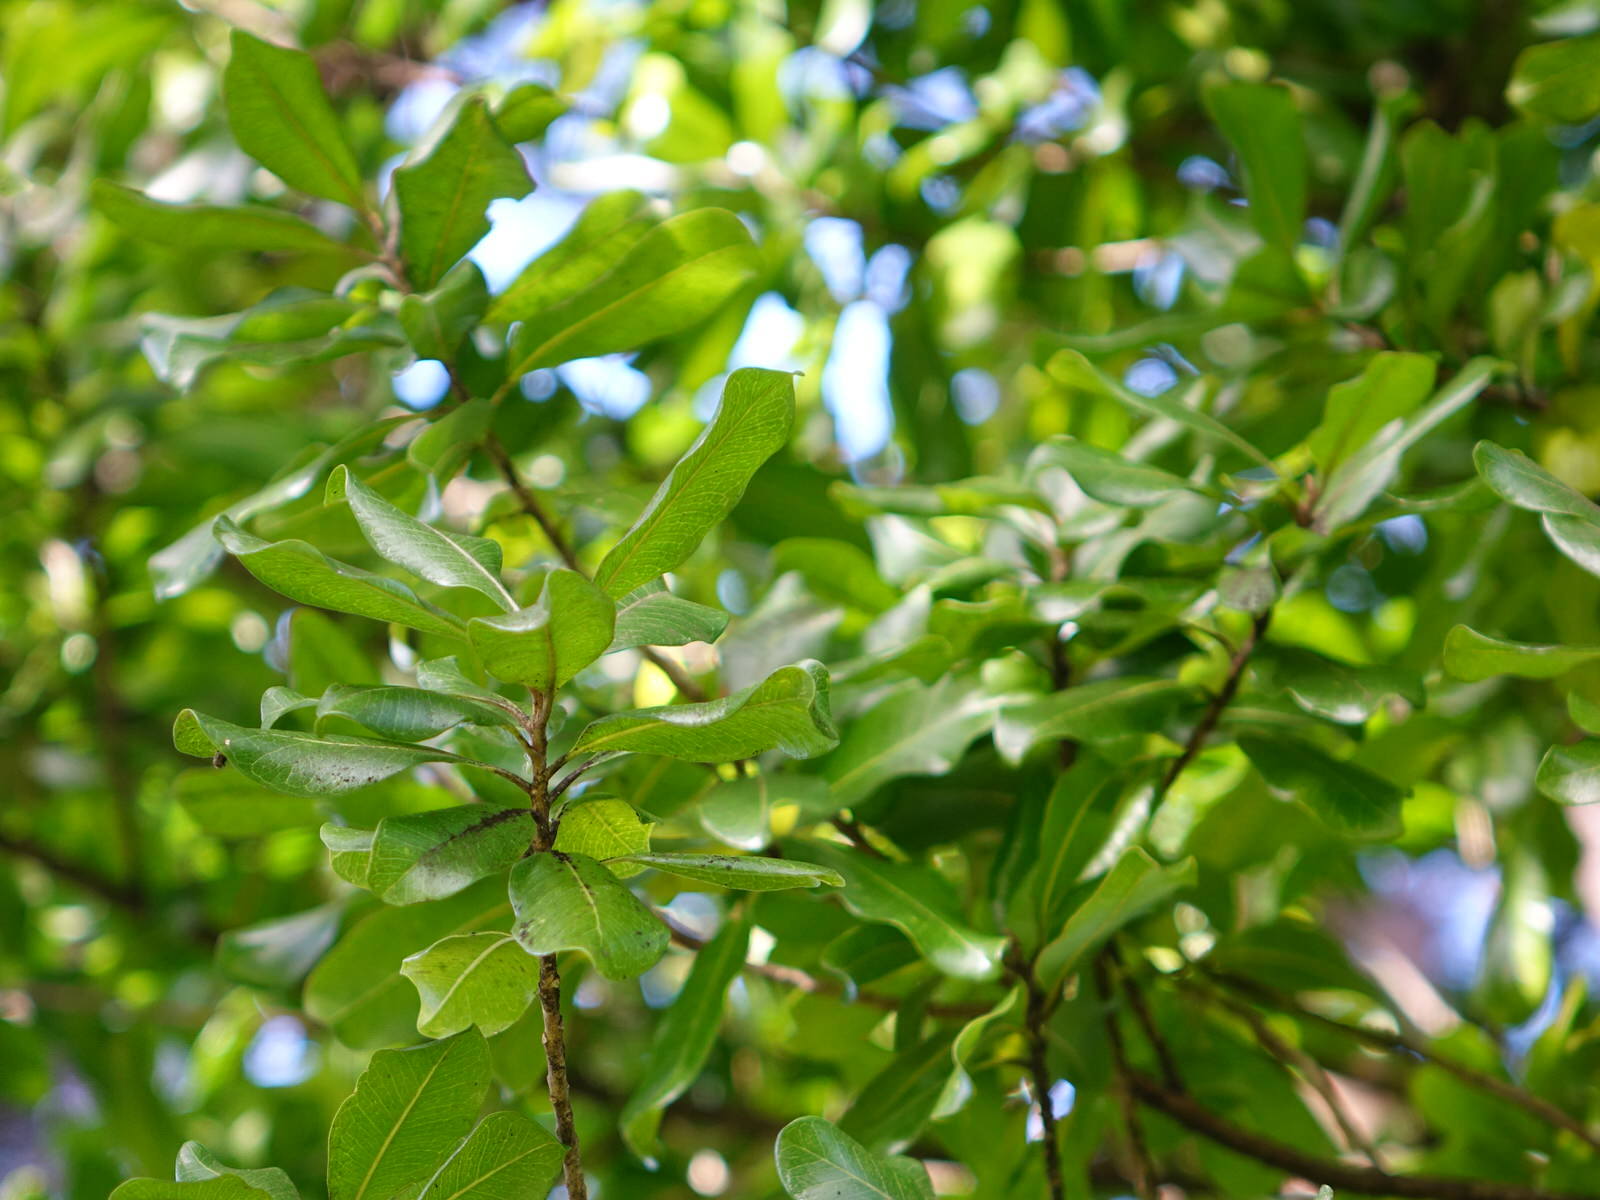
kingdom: Plantae
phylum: Tracheophyta
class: Magnoliopsida
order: Ericales
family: Sapotaceae
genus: Planchonella
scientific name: Planchonella costata
